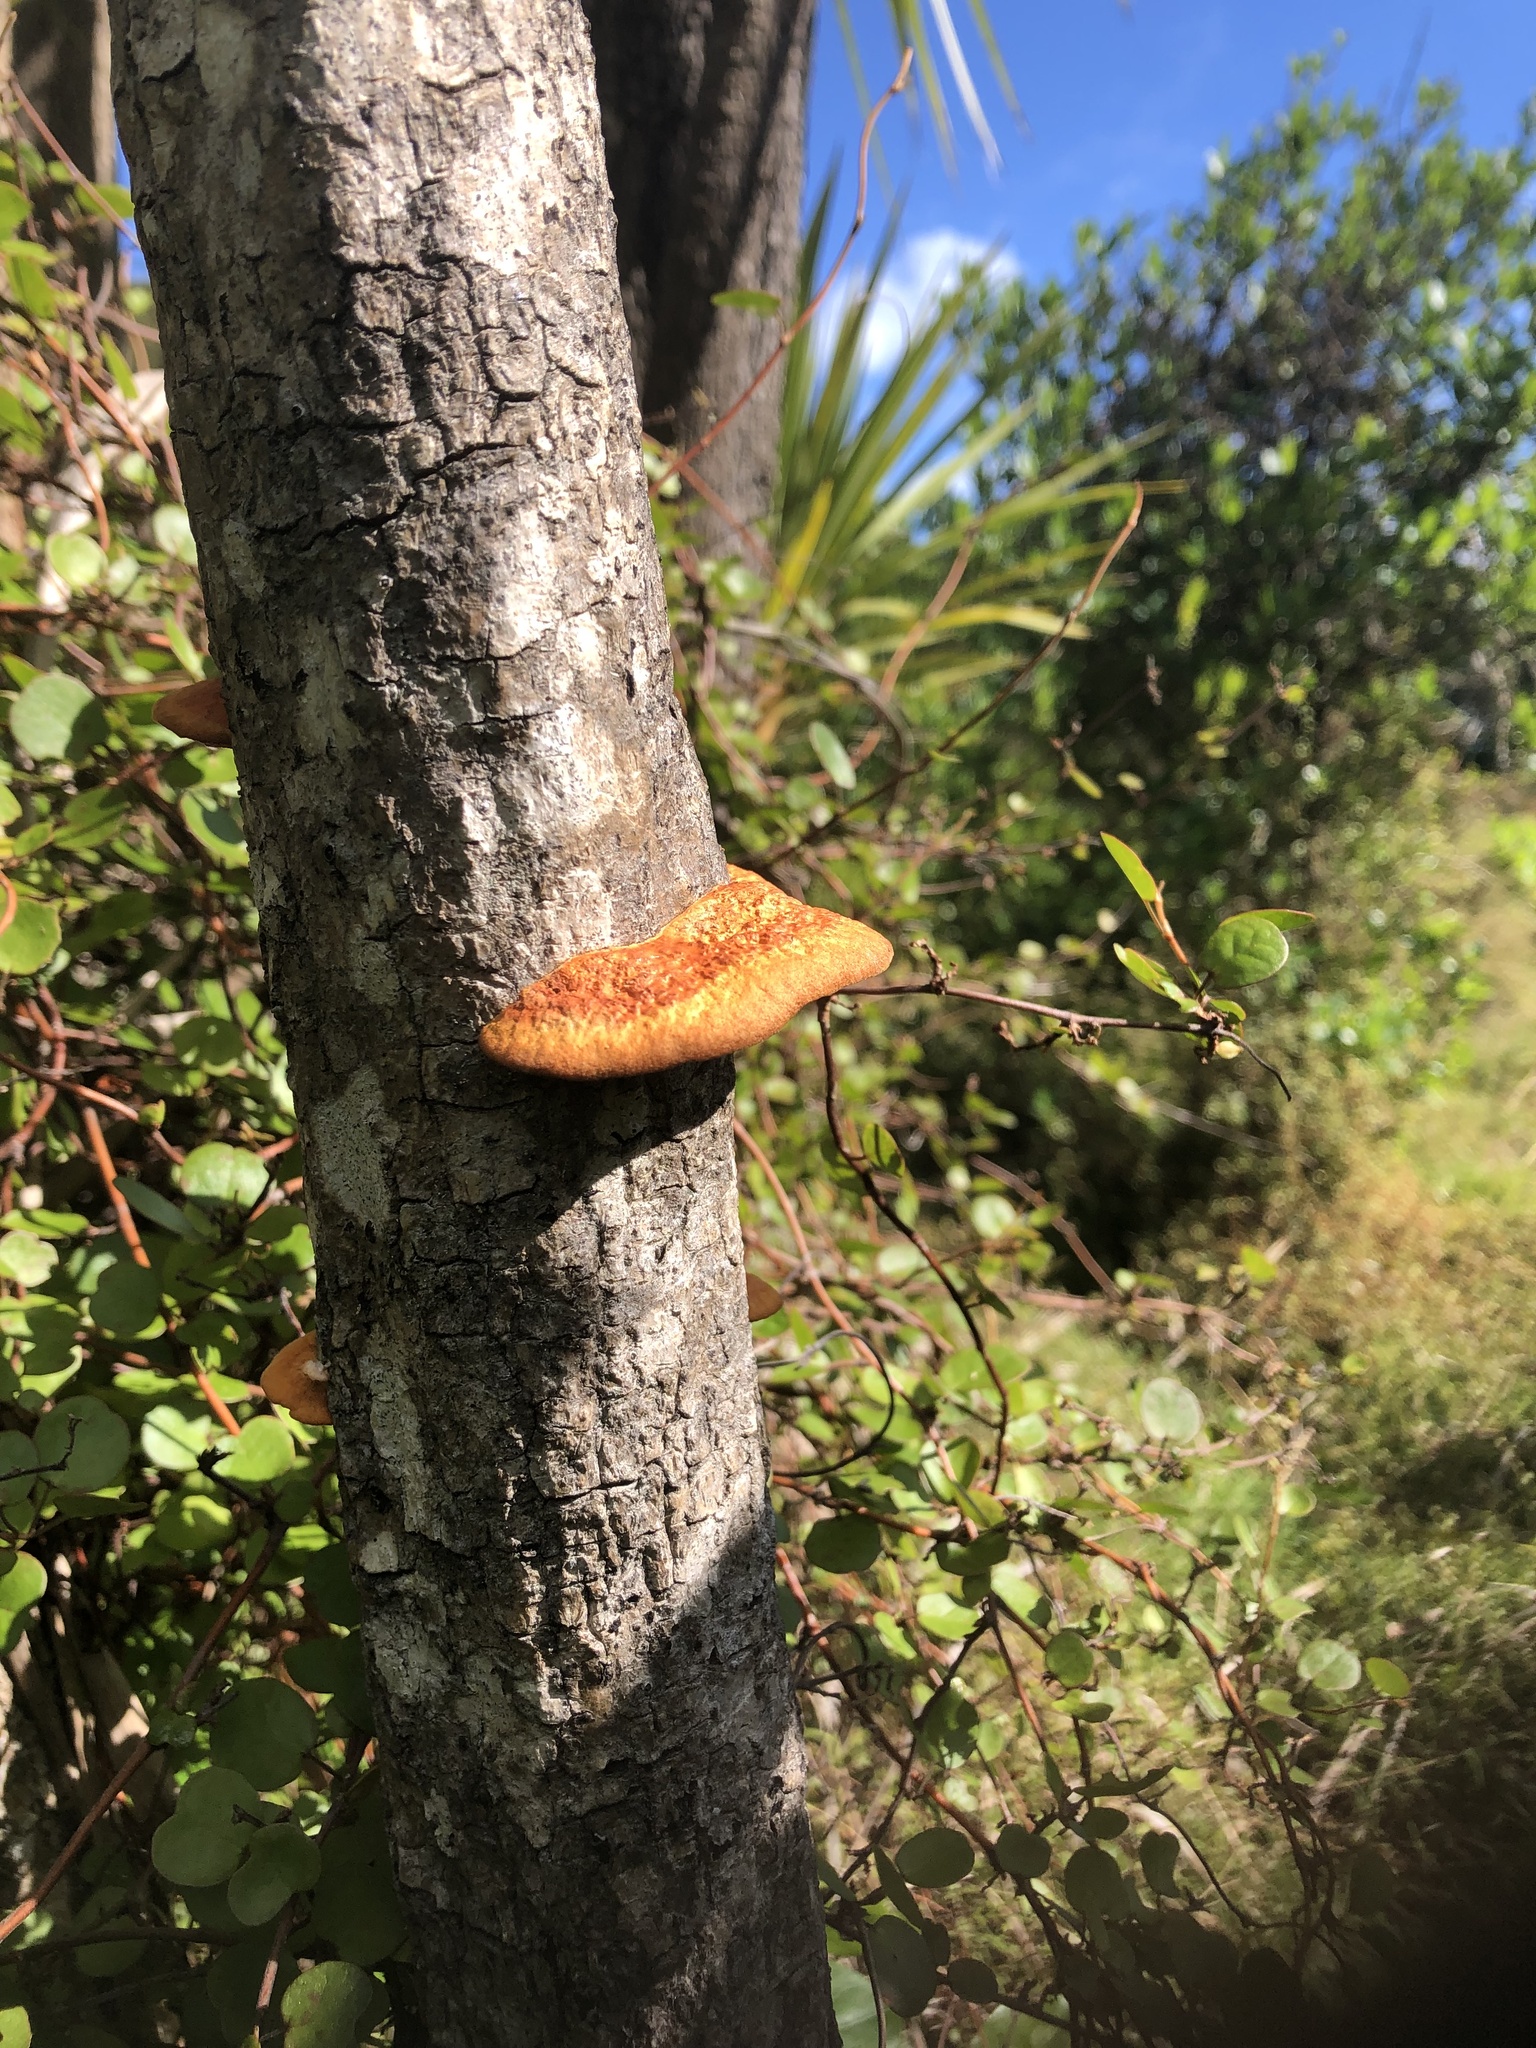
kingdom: Fungi
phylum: Basidiomycota
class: Agaricomycetes
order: Polyporales
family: Polyporaceae
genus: Trametes
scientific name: Trametes coccinea
